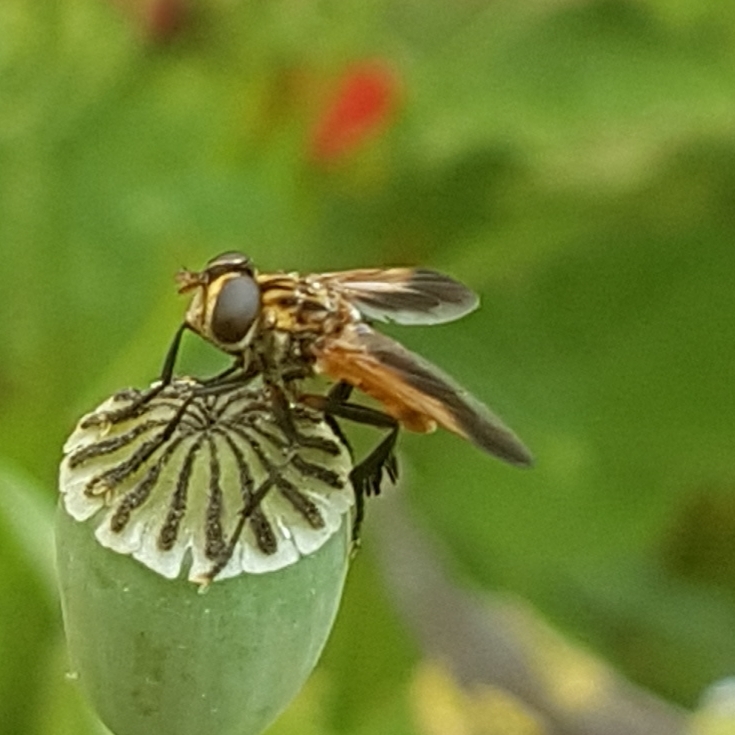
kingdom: Animalia
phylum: Arthropoda
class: Insecta
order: Diptera
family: Tachinidae
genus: Trichopoda
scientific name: Trichopoda pictipennis
